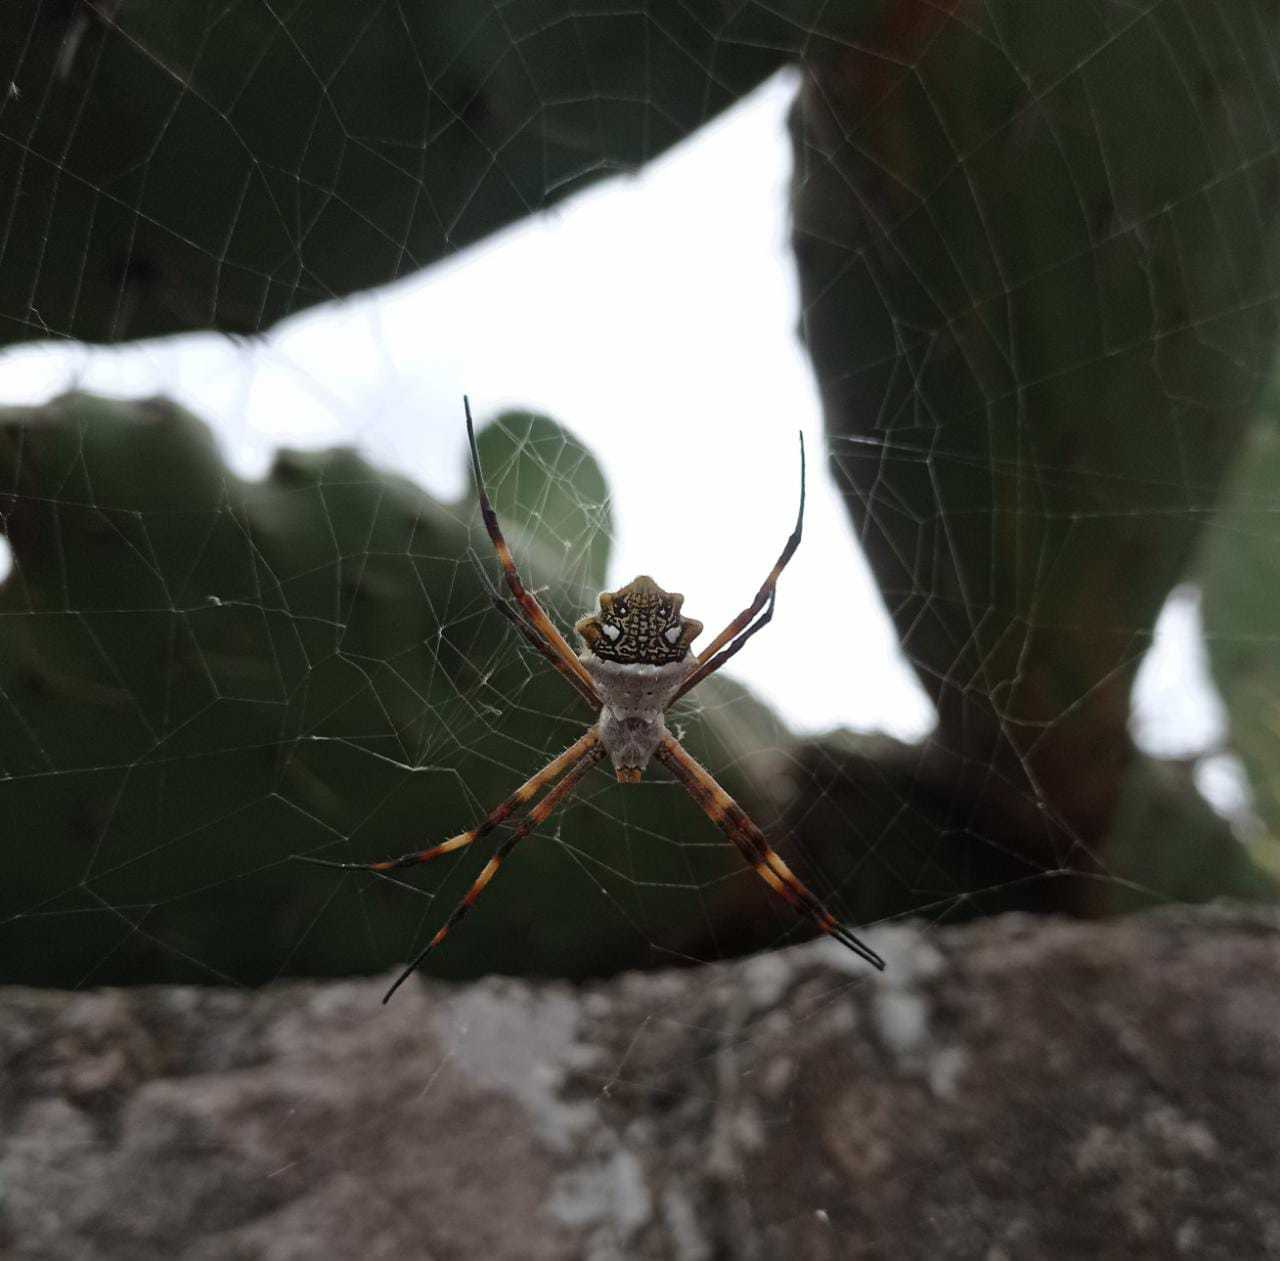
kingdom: Animalia
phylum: Arthropoda
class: Arachnida
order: Araneae
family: Araneidae
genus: Argiope
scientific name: Argiope argentata
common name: Orb weavers
